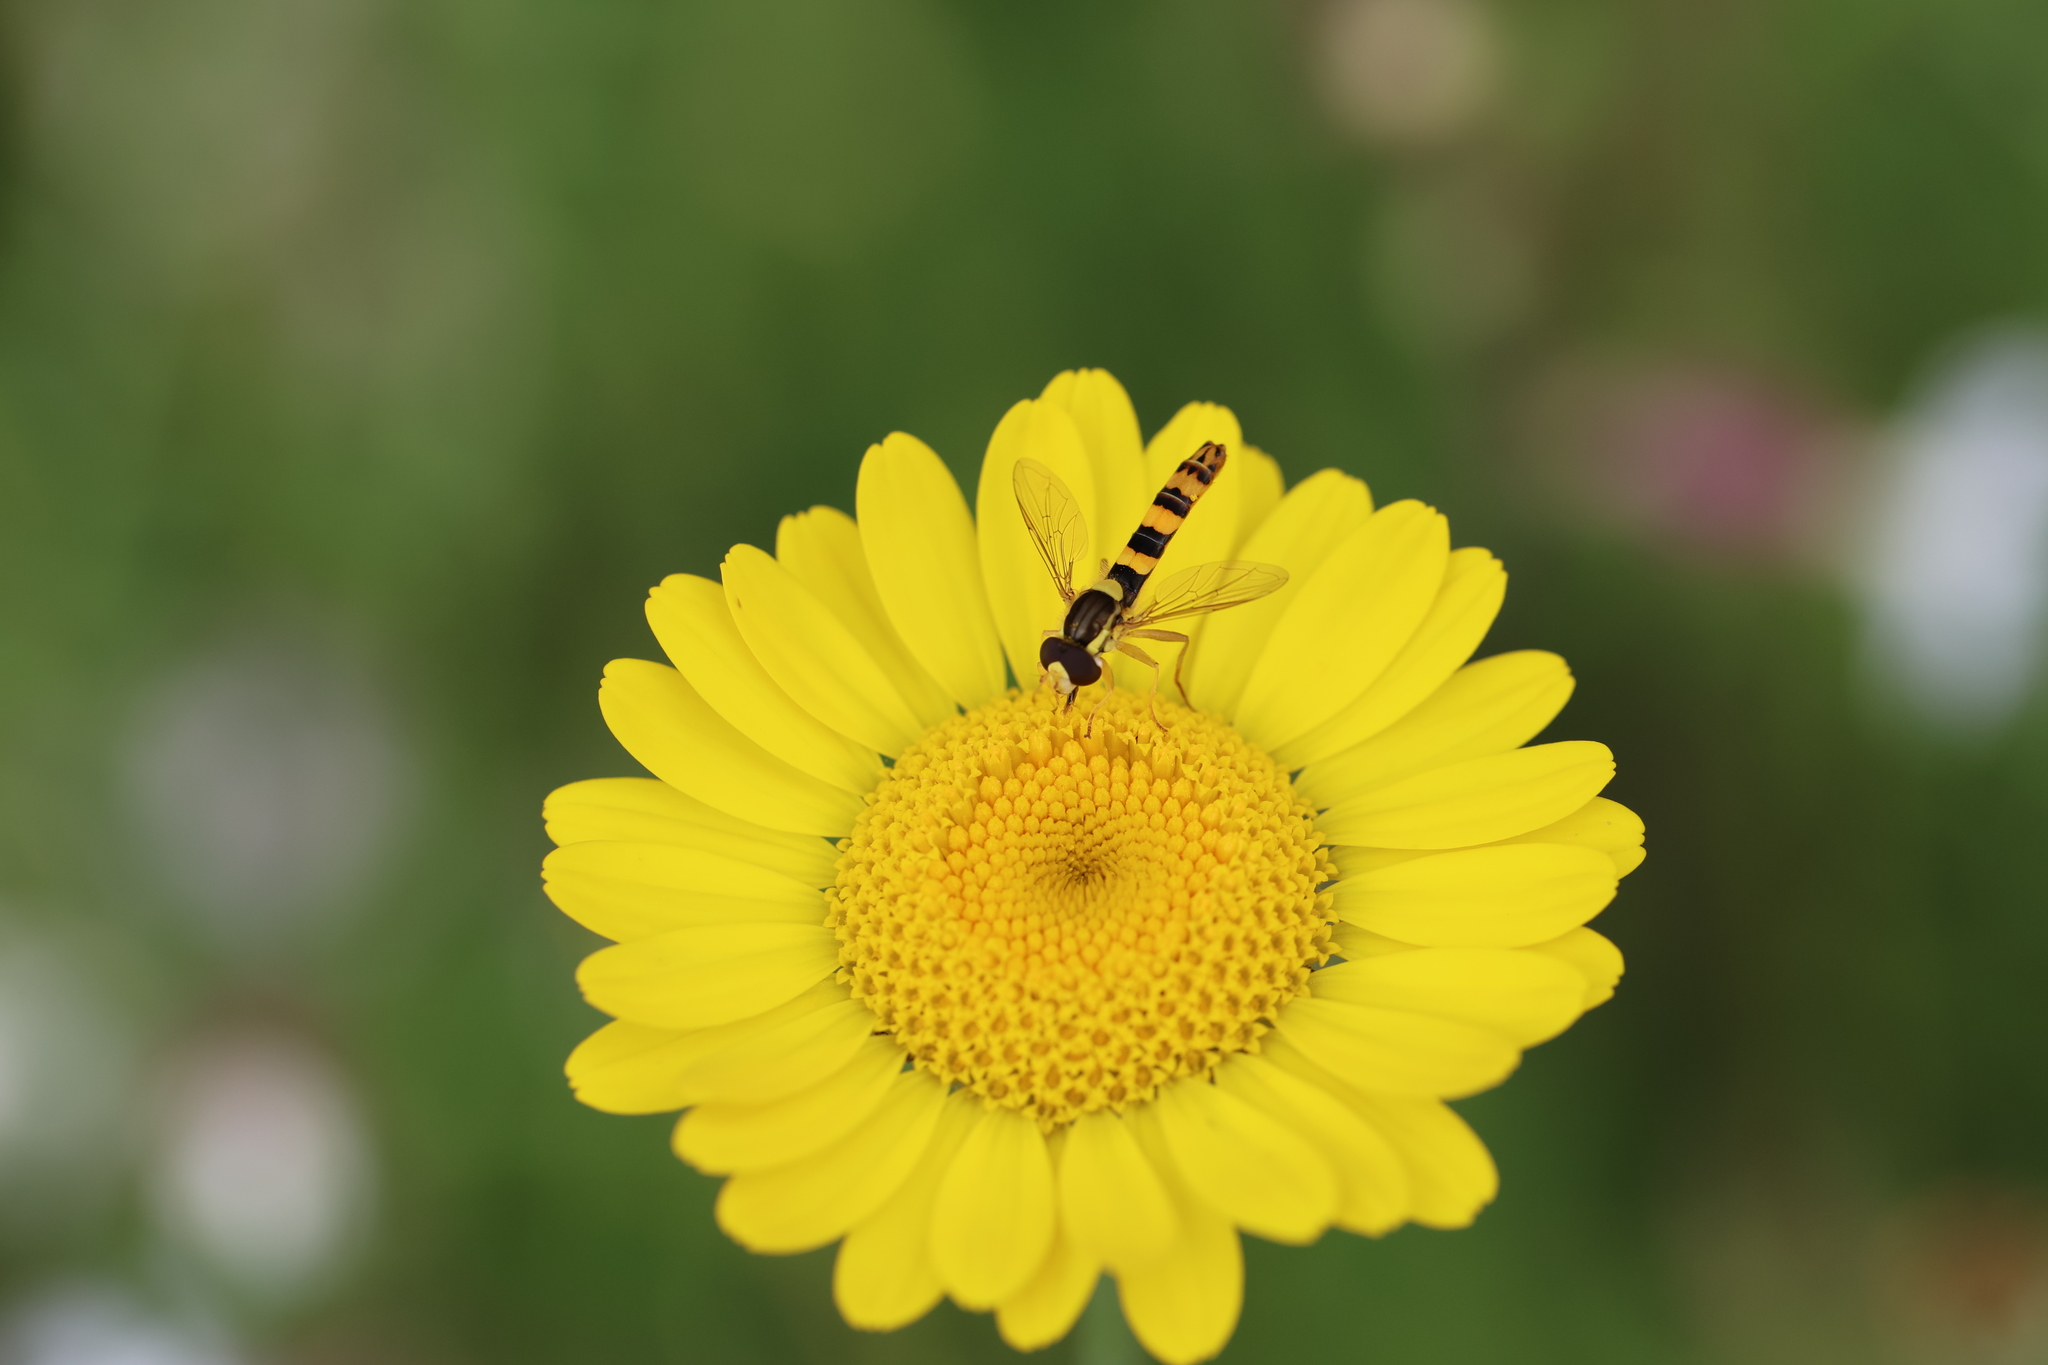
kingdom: Animalia
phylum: Arthropoda
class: Insecta
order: Diptera
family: Syrphidae
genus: Sphaerophoria
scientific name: Sphaerophoria scripta
